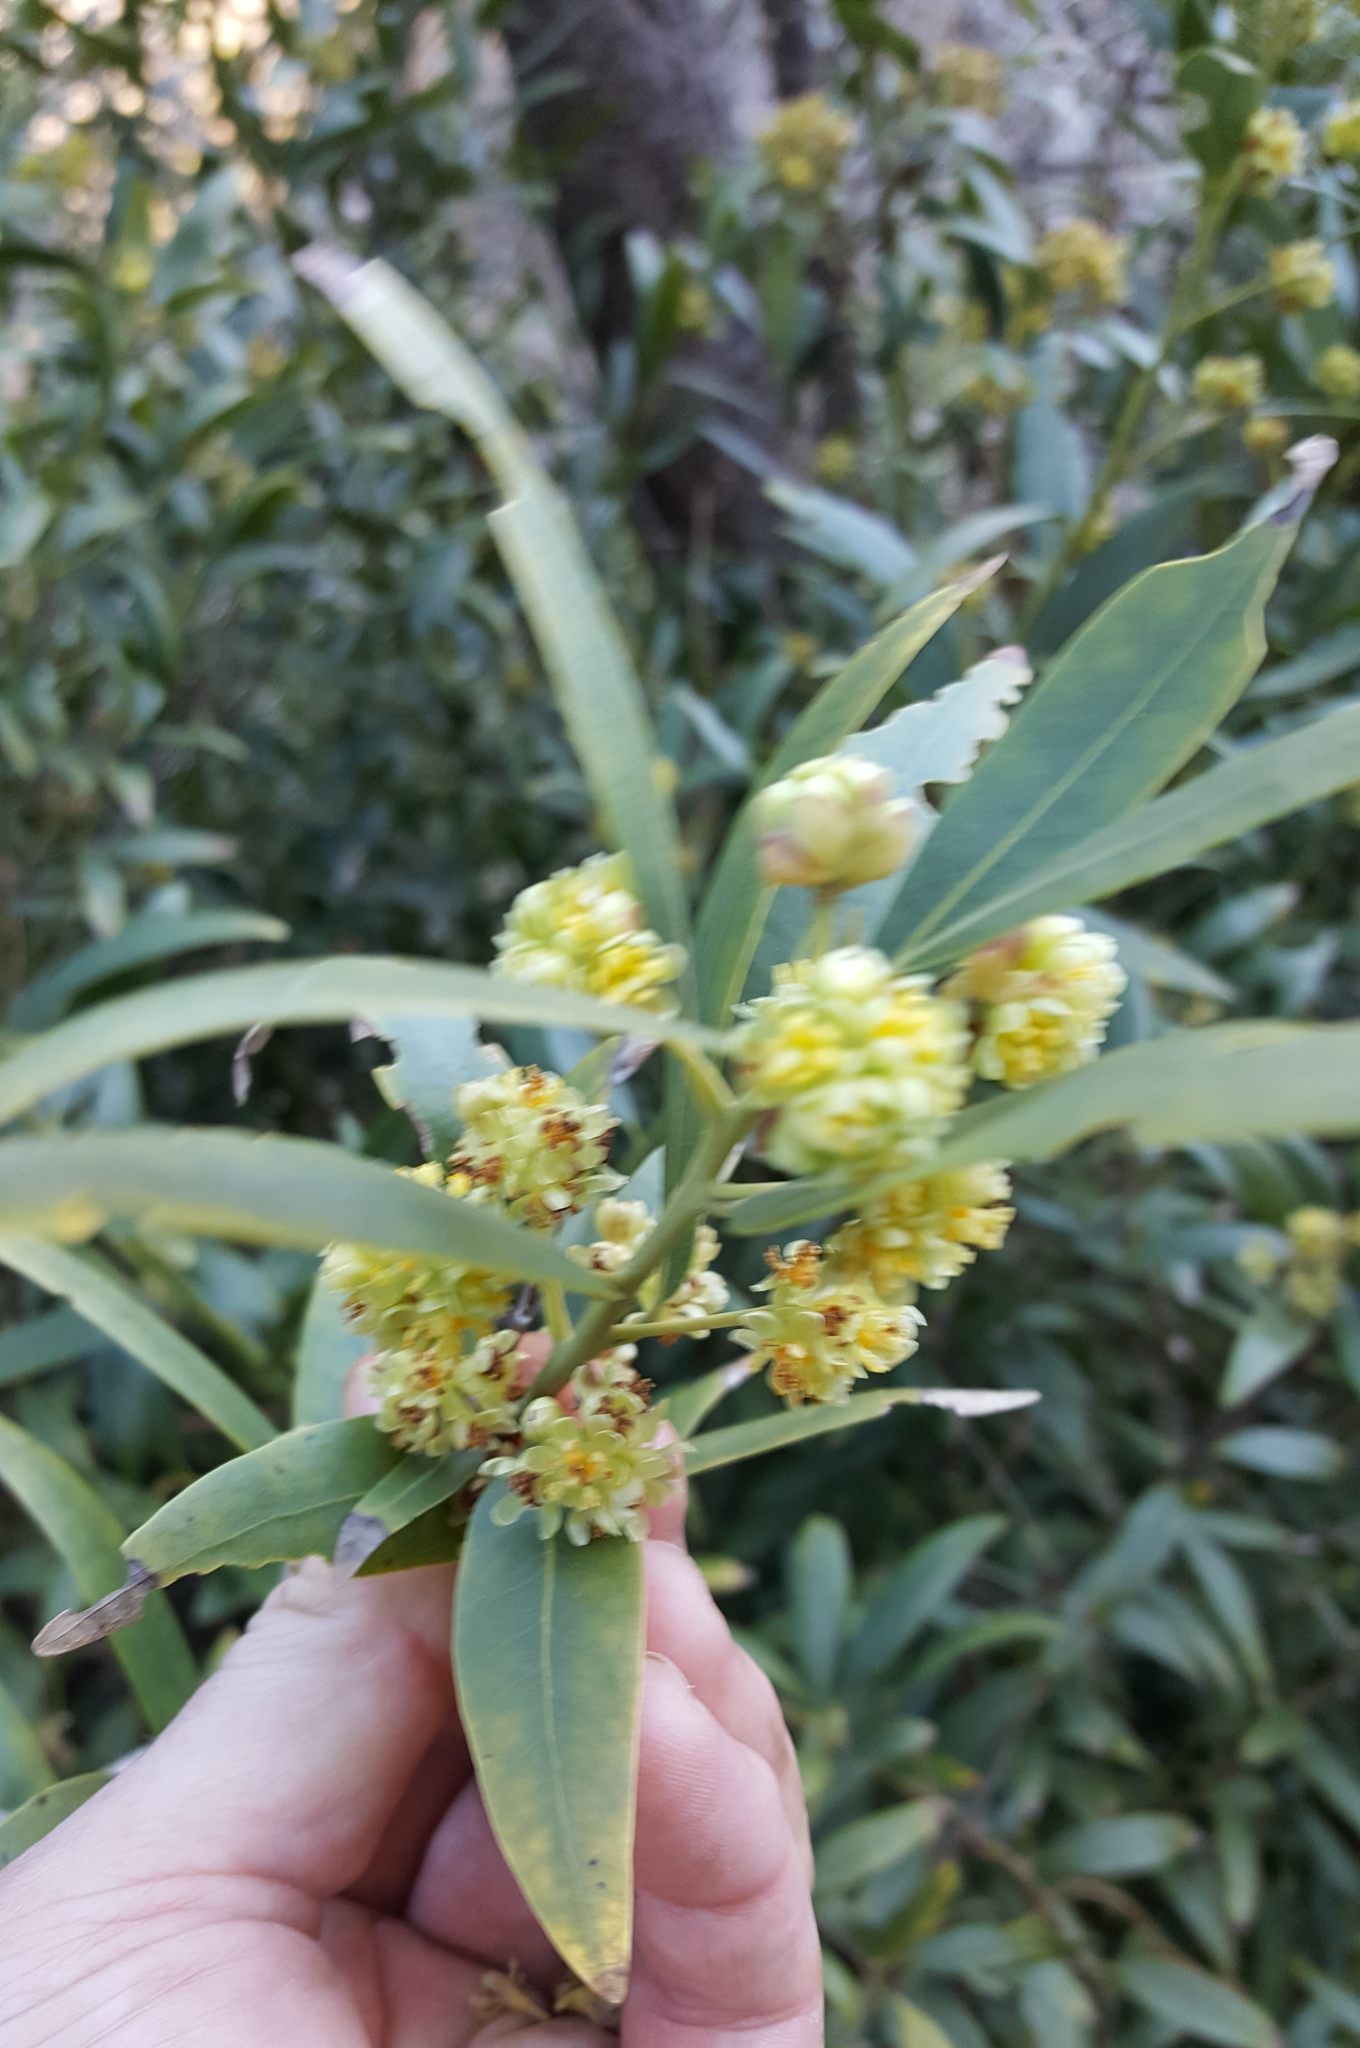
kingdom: Plantae
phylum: Tracheophyta
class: Magnoliopsida
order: Laurales
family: Lauraceae
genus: Umbellularia
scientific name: Umbellularia californica
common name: California bay
